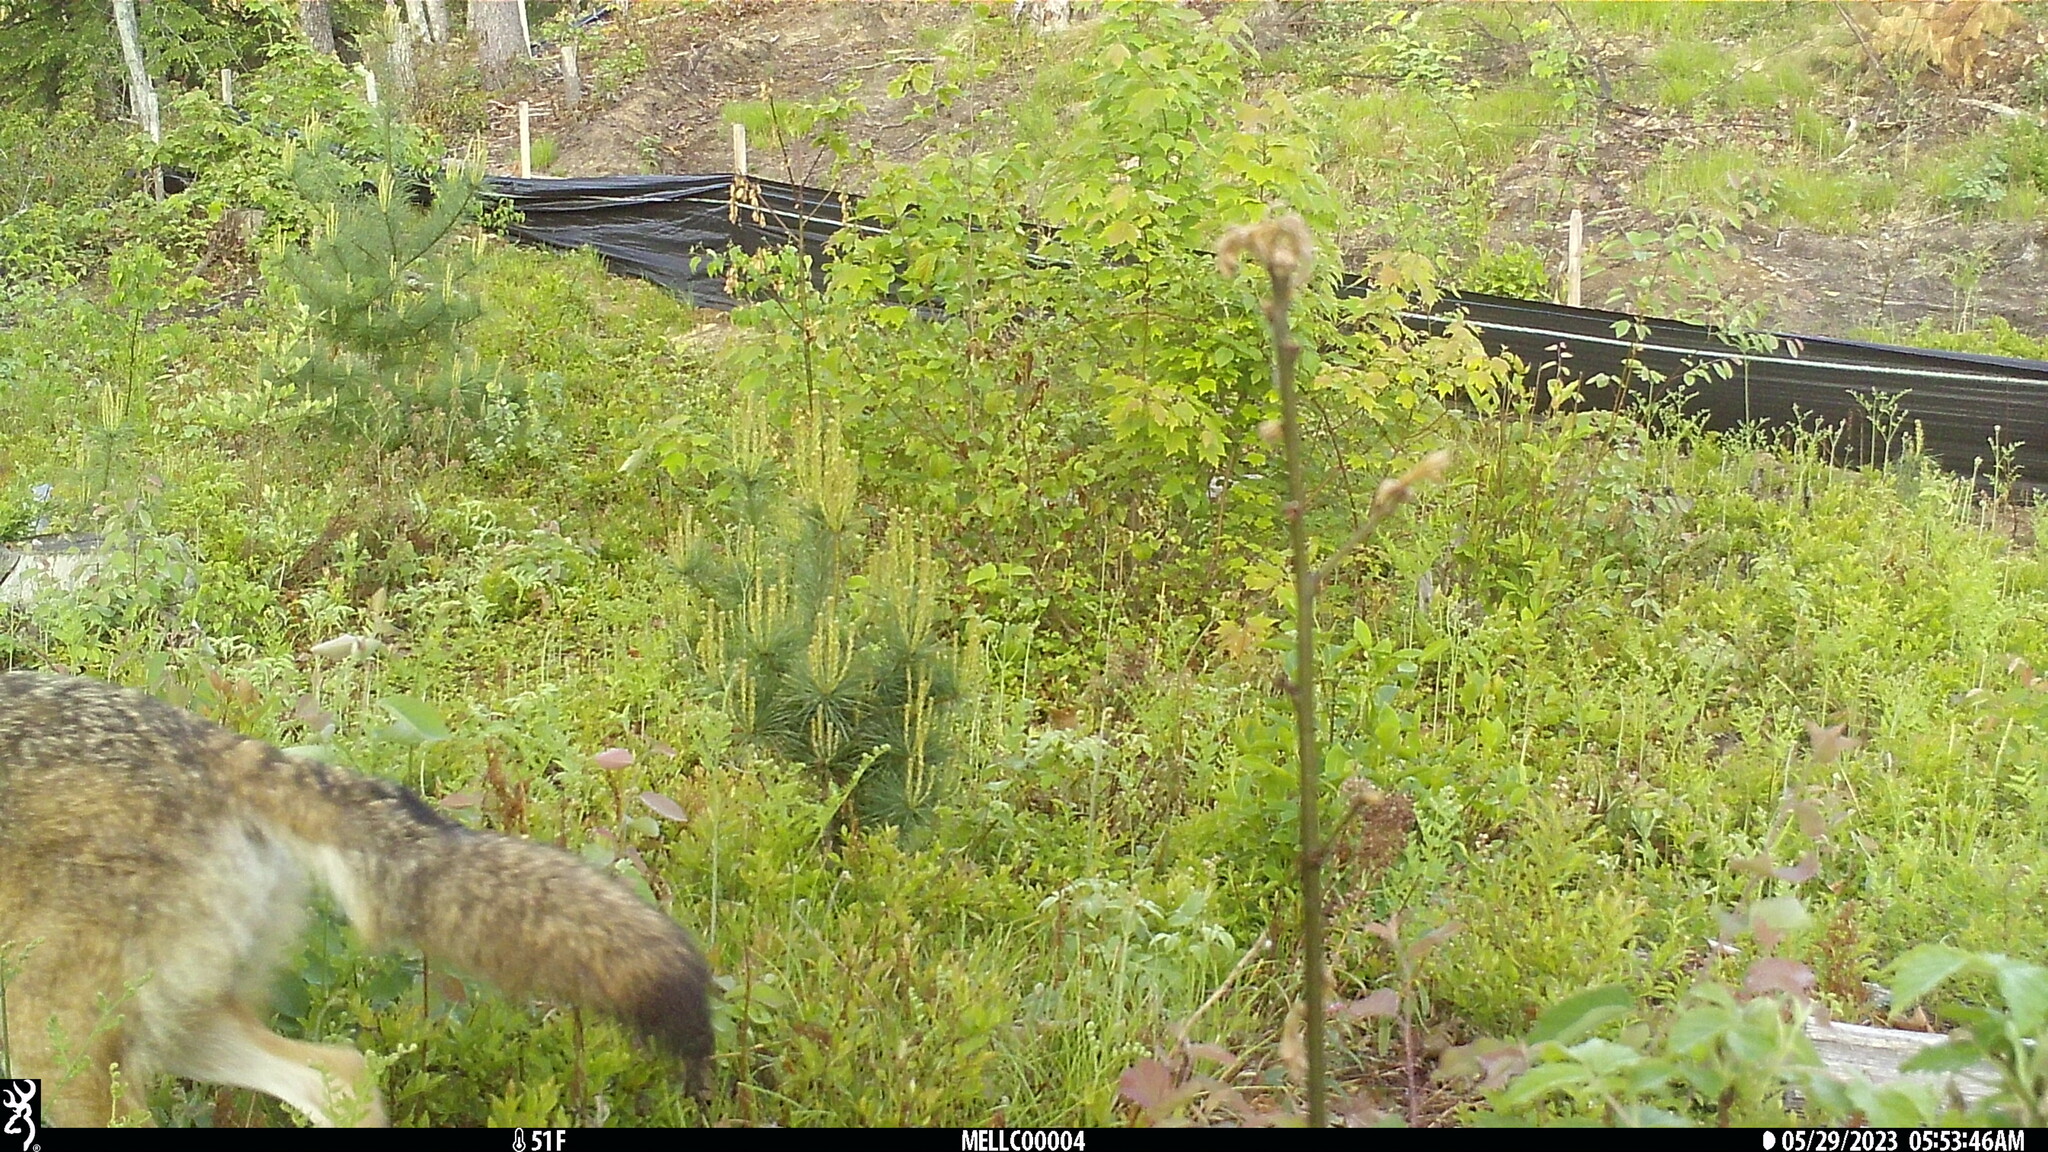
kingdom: Animalia
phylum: Chordata
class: Mammalia
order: Carnivora
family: Canidae
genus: Canis
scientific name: Canis latrans
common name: Coyote
